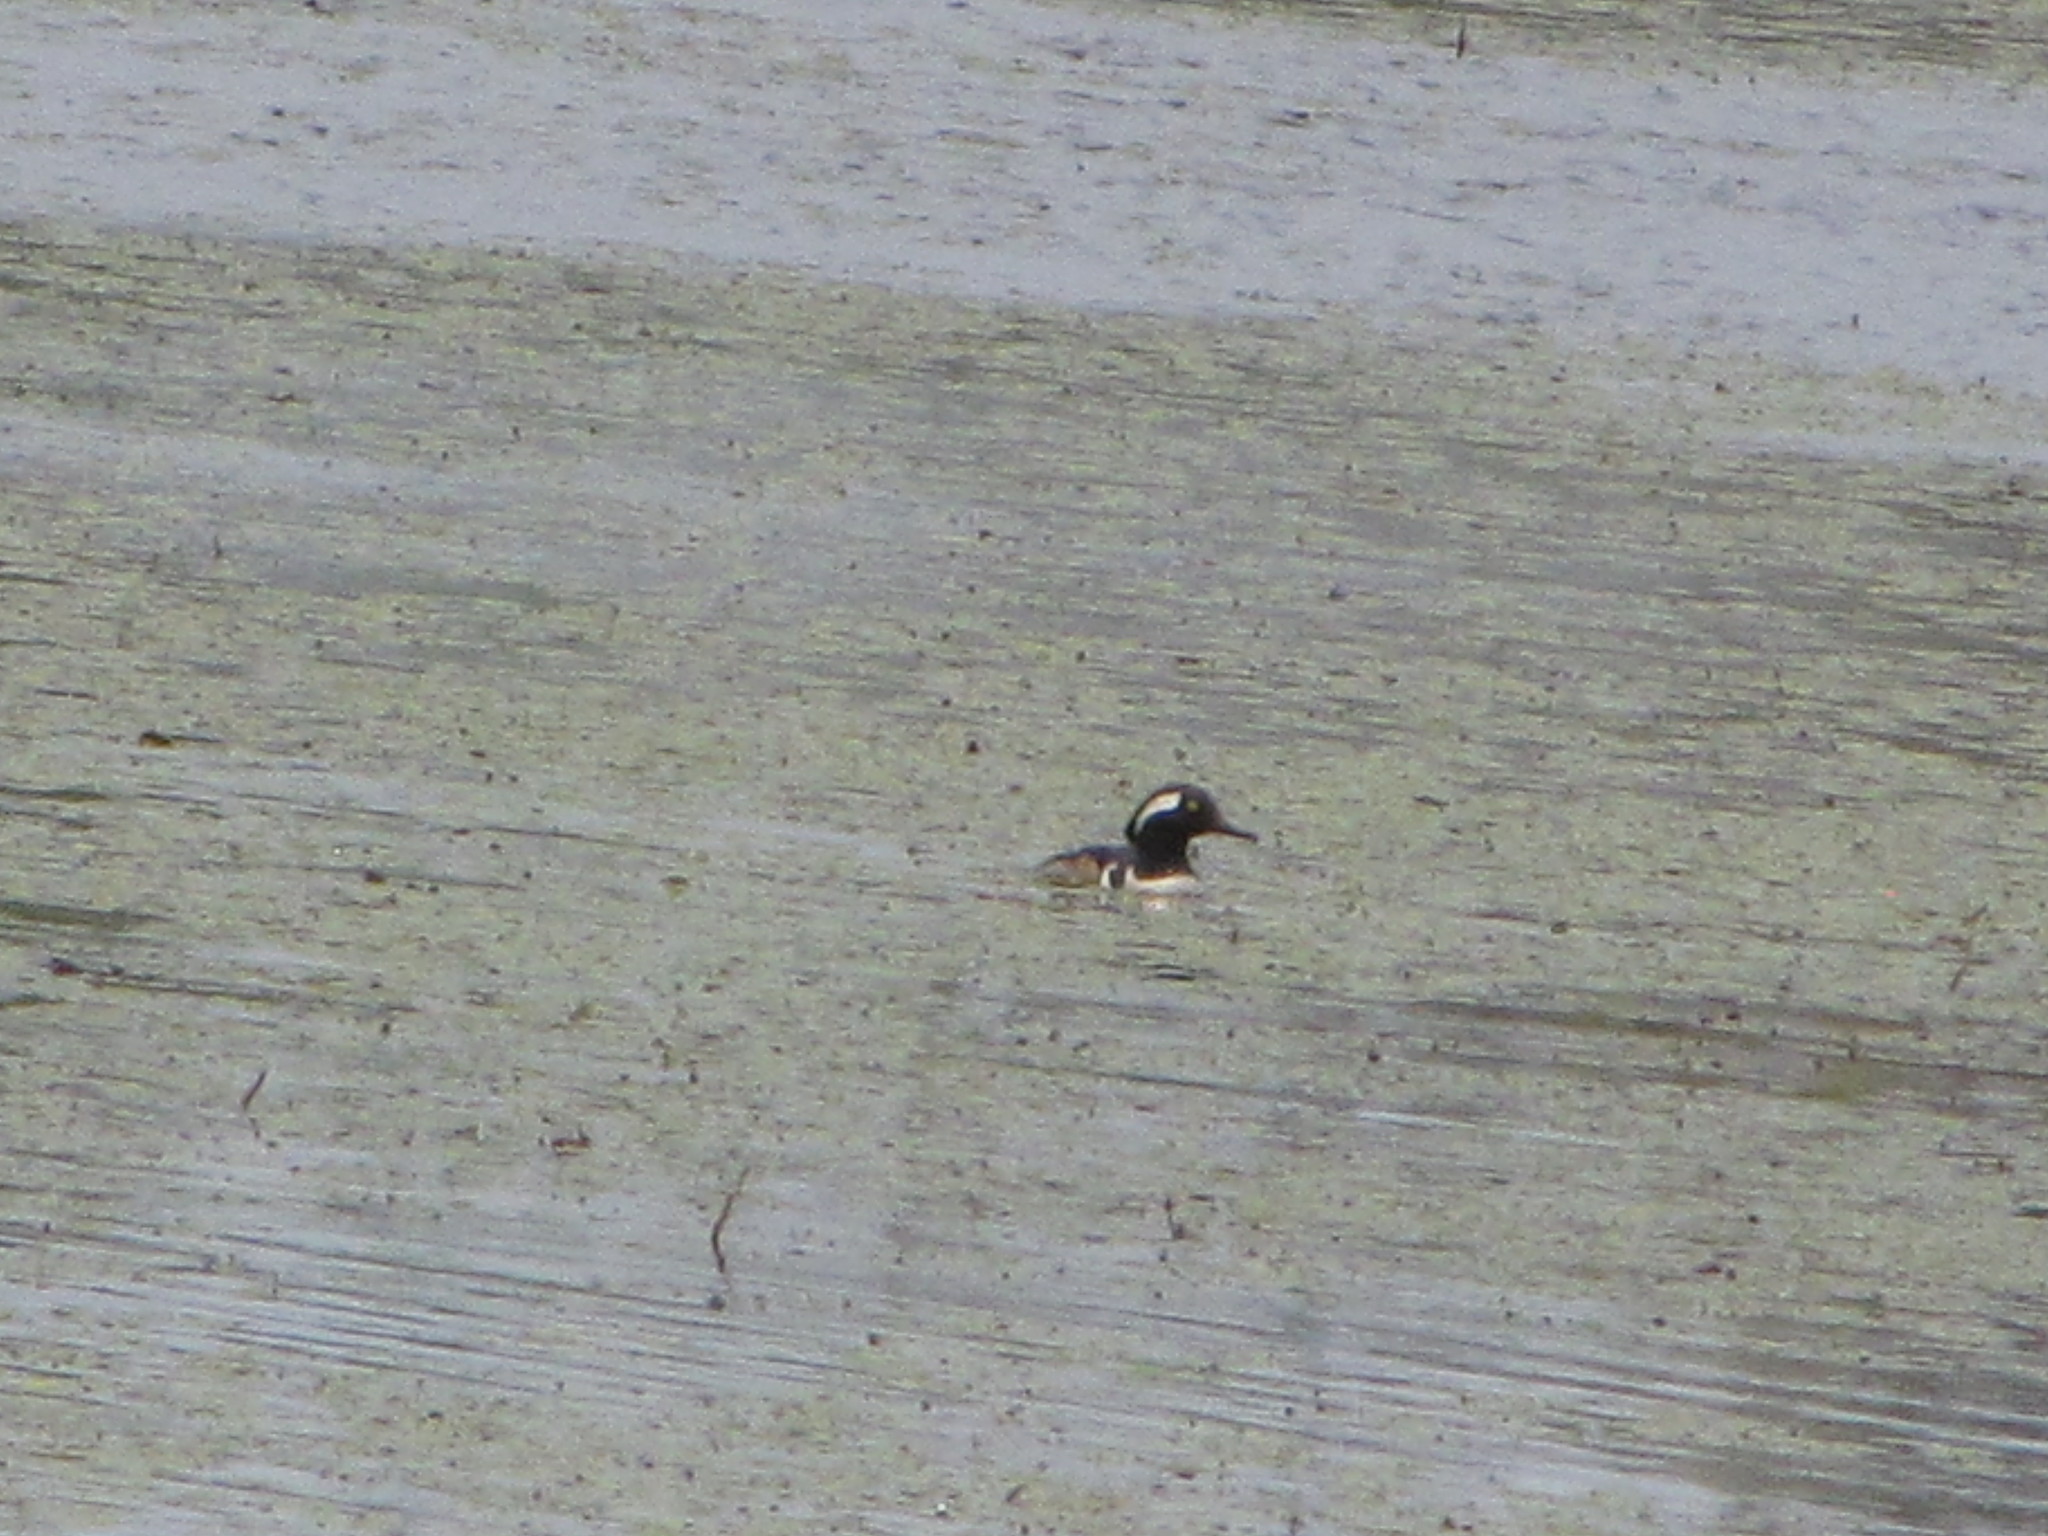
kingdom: Animalia
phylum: Chordata
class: Aves
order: Anseriformes
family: Anatidae
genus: Lophodytes
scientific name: Lophodytes cucullatus
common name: Hooded merganser
